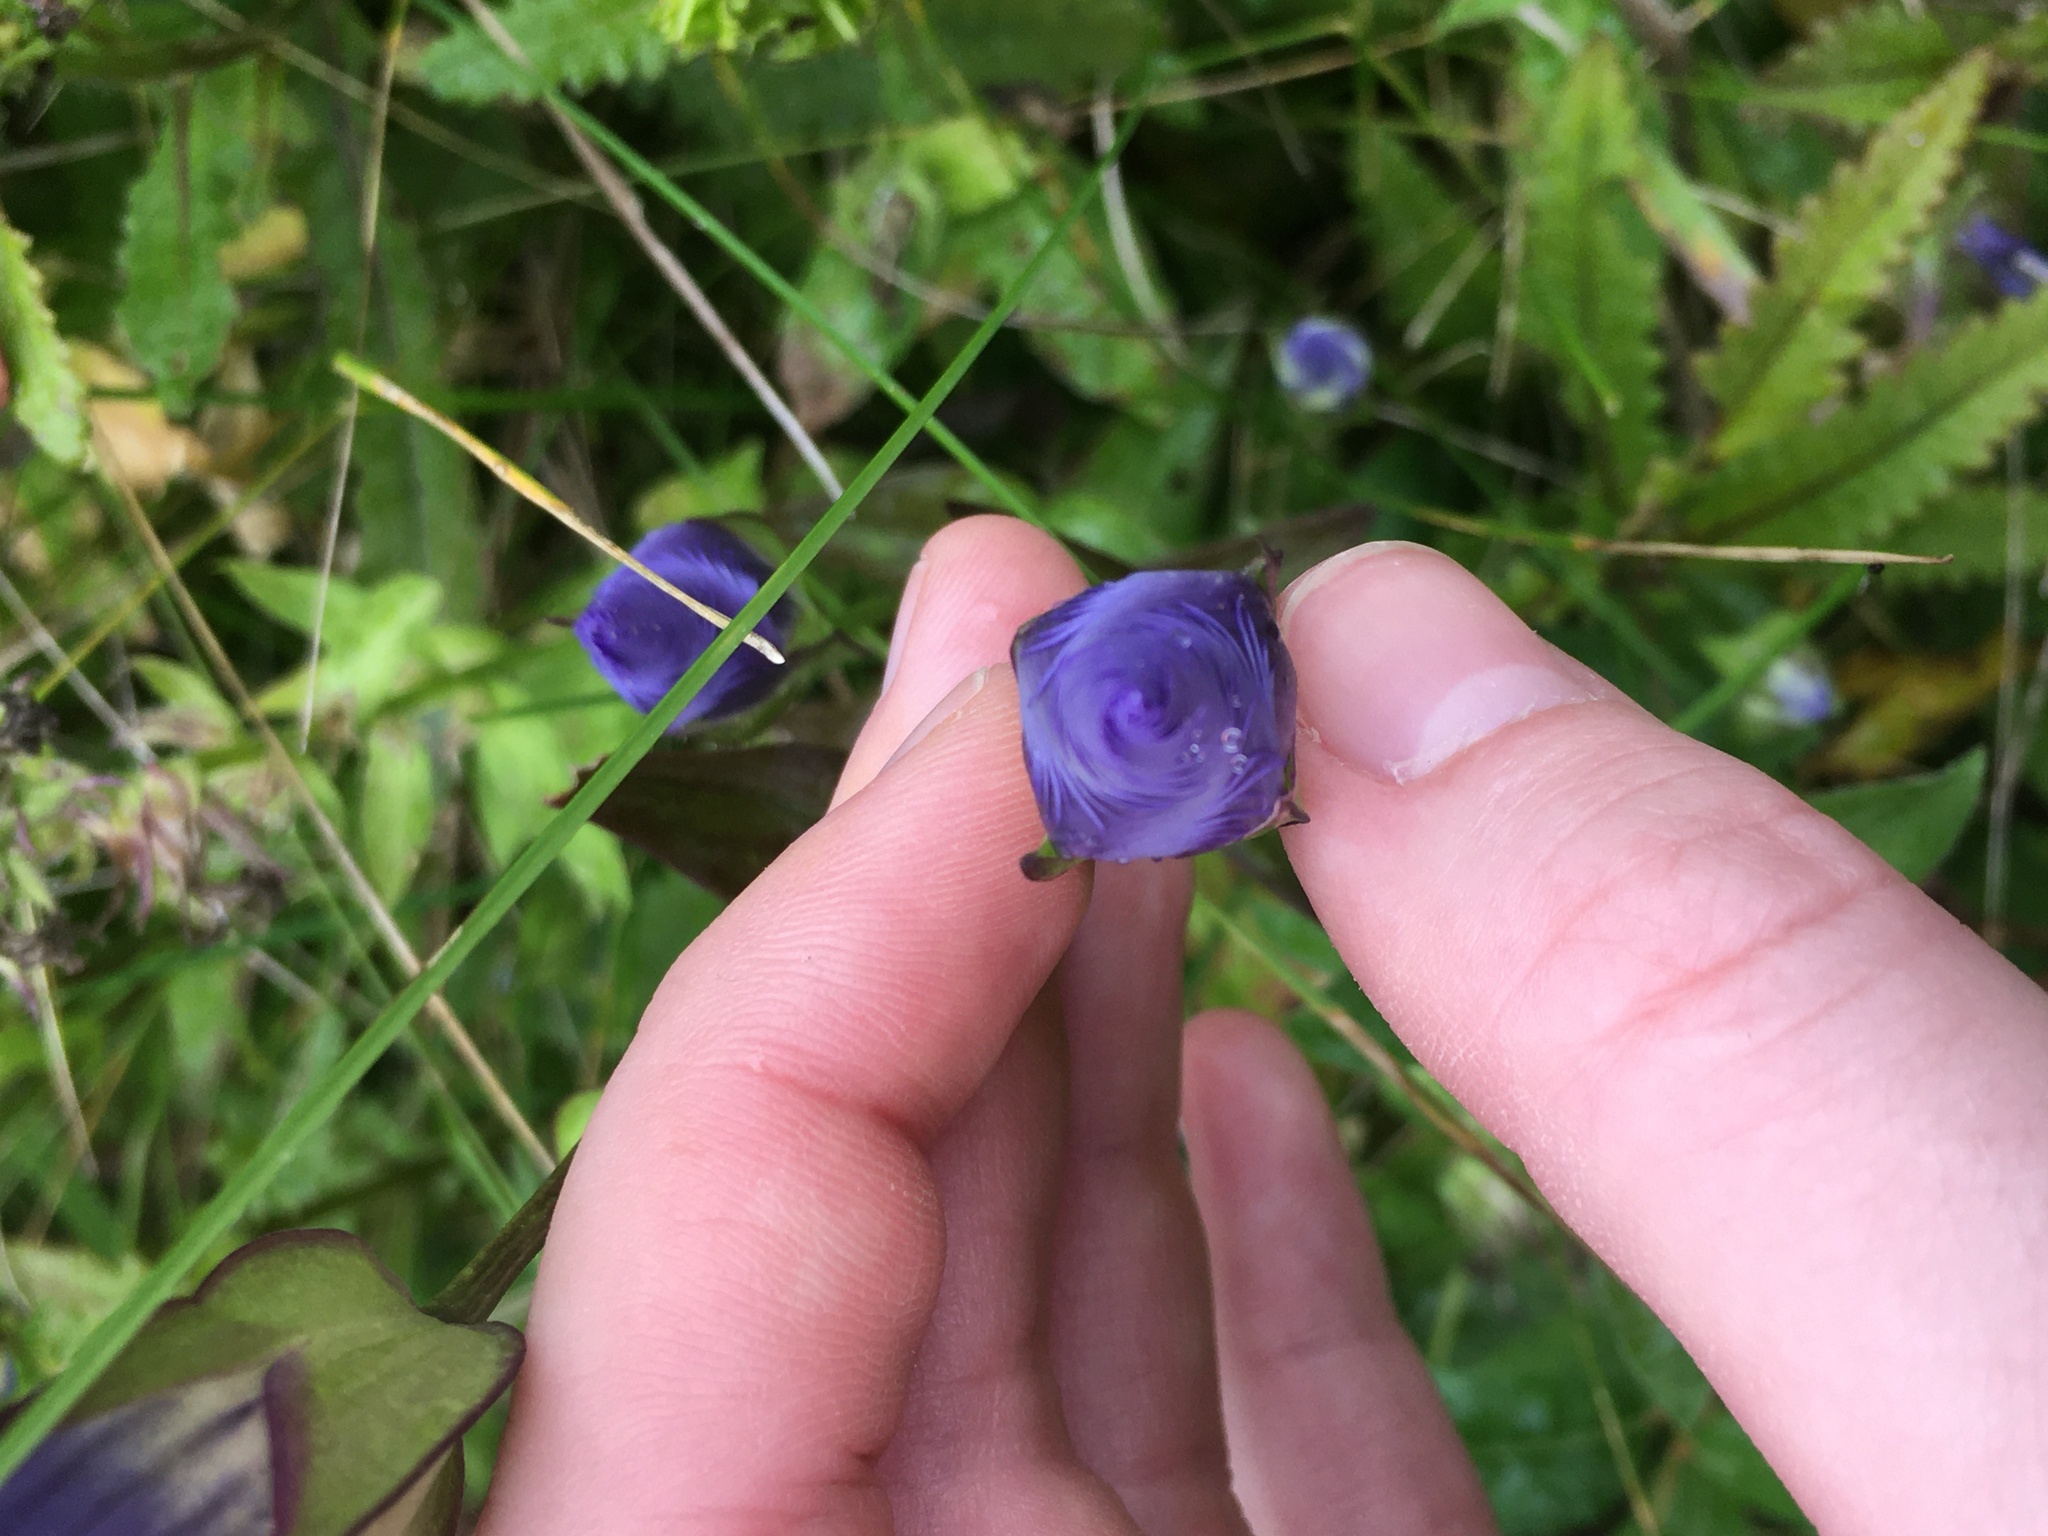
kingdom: Plantae
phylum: Tracheophyta
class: Magnoliopsida
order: Gentianales
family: Gentianaceae
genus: Gentianopsis
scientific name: Gentianopsis crinita
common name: Fringed-gentian
